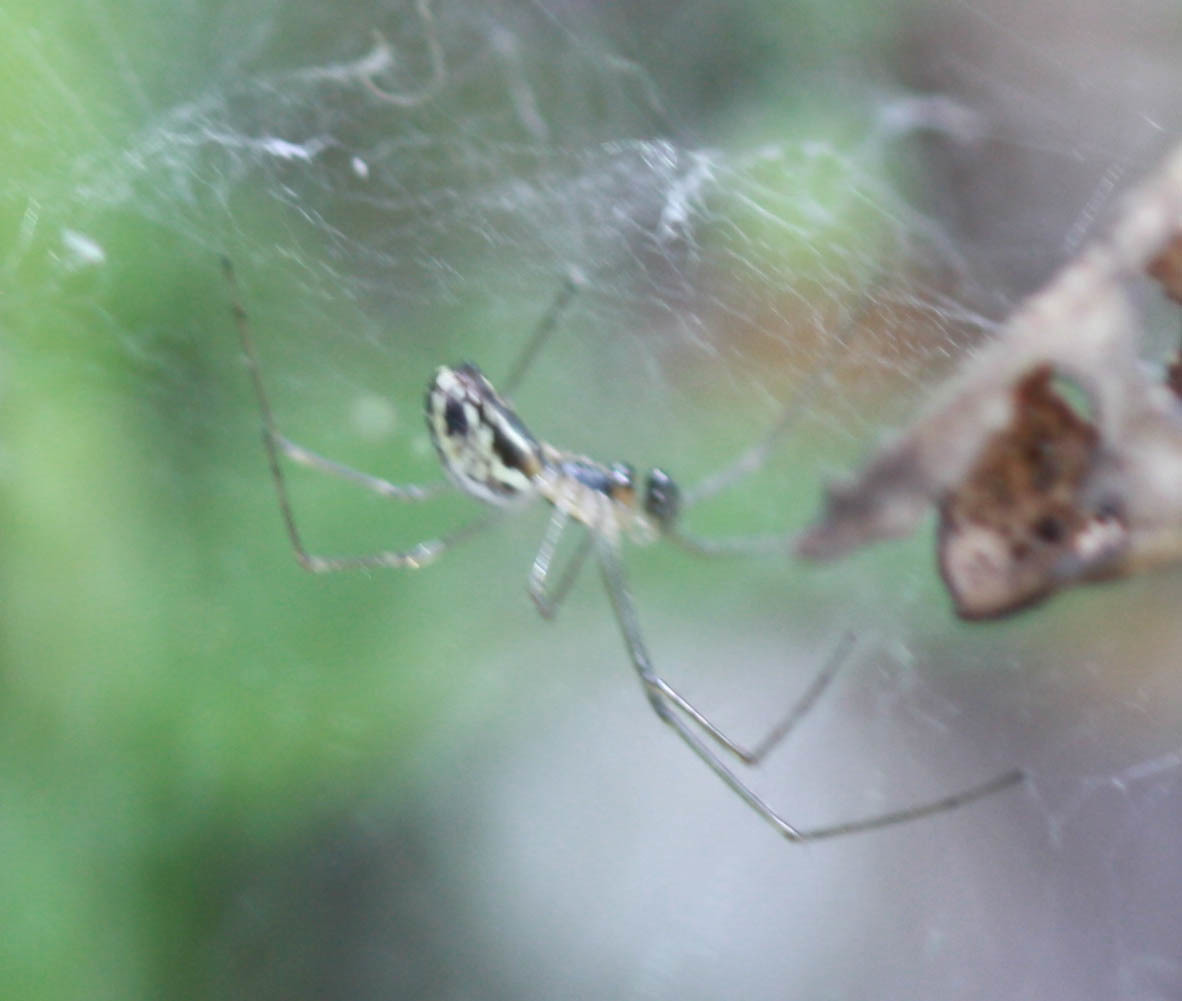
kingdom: Animalia
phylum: Arthropoda
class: Arachnida
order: Araneae
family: Linyphiidae
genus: Neriene
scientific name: Neriene litigiosa
